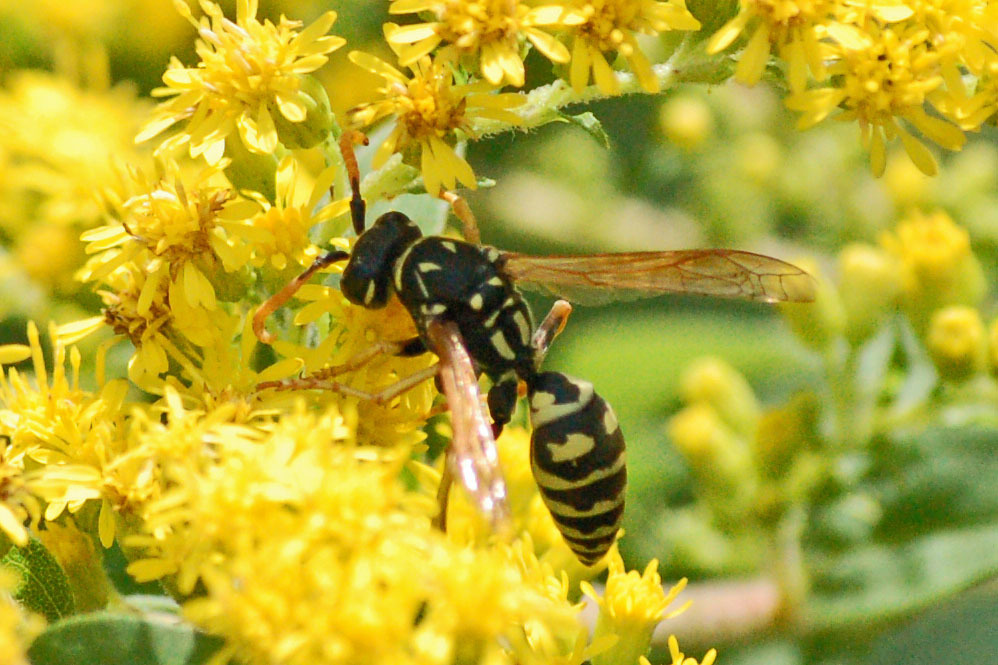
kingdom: Animalia
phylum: Arthropoda
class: Insecta
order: Hymenoptera
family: Eumenidae
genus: Polistes
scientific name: Polistes dominula
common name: Paper wasp
